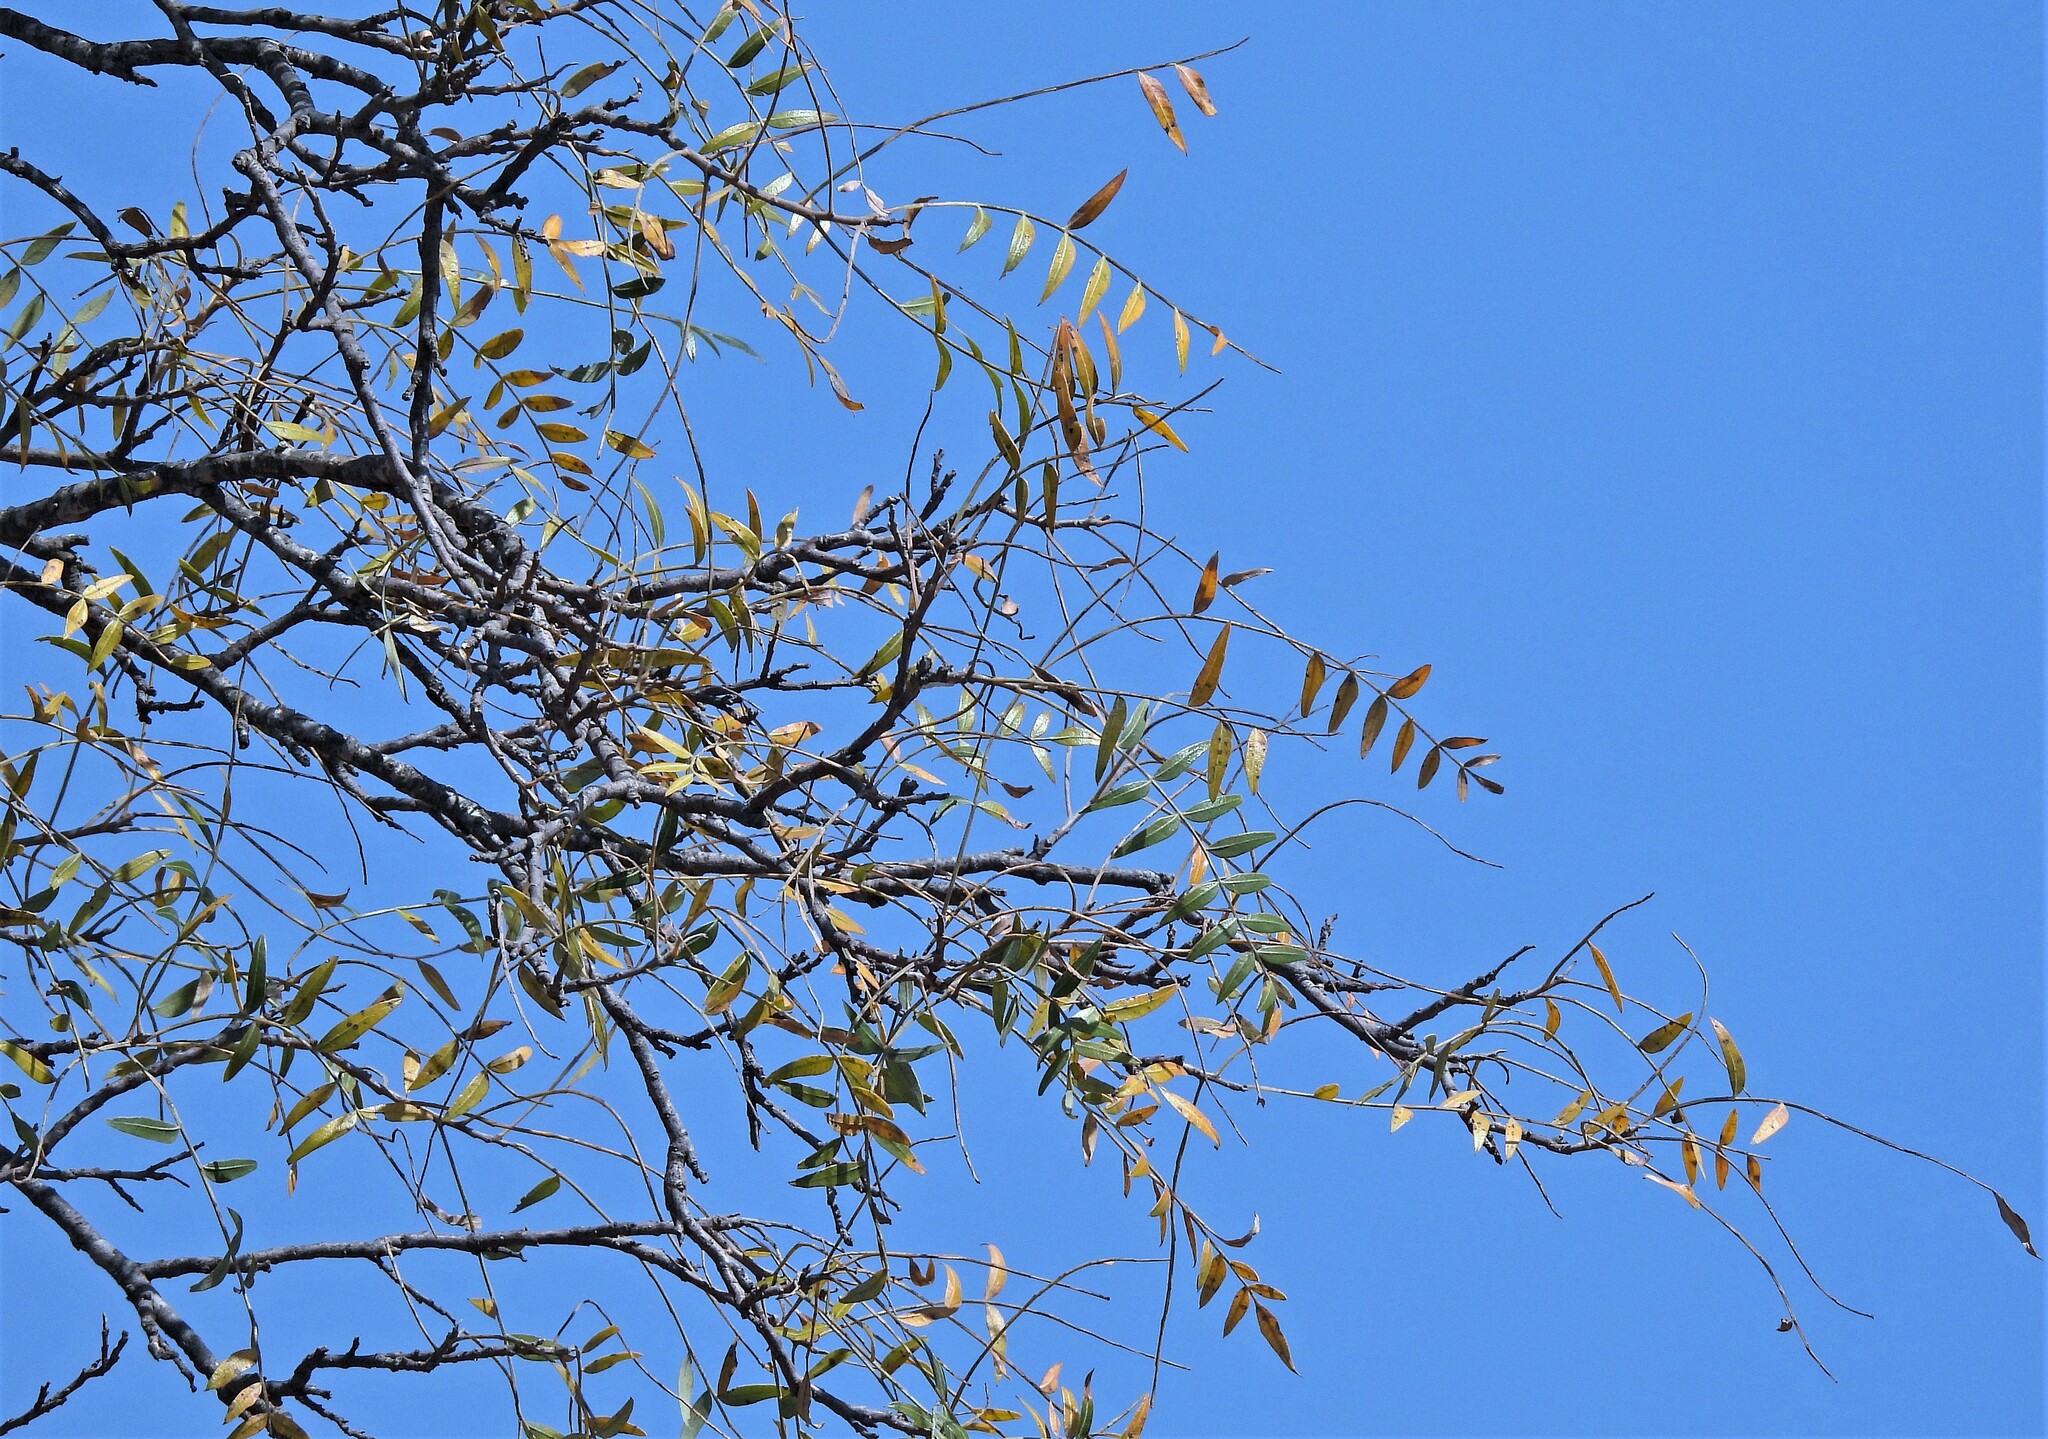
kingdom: Plantae
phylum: Tracheophyta
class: Magnoliopsida
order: Sapindales
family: Anacardiaceae
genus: Schinopsis
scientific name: Schinopsis lorentzii
